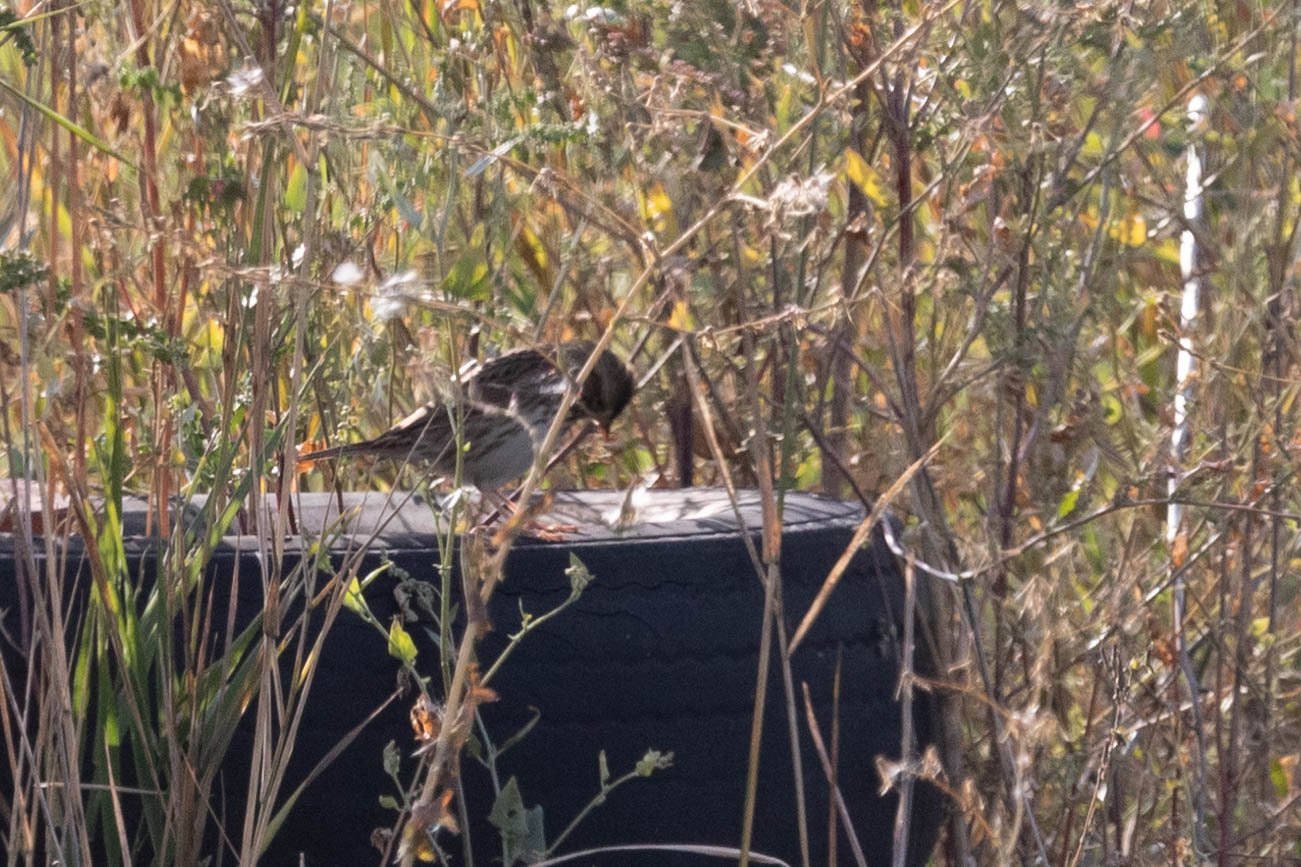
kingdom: Animalia
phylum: Chordata
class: Aves
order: Passeriformes
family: Passerellidae
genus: Passerculus
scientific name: Passerculus sandwichensis
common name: Savannah sparrow
